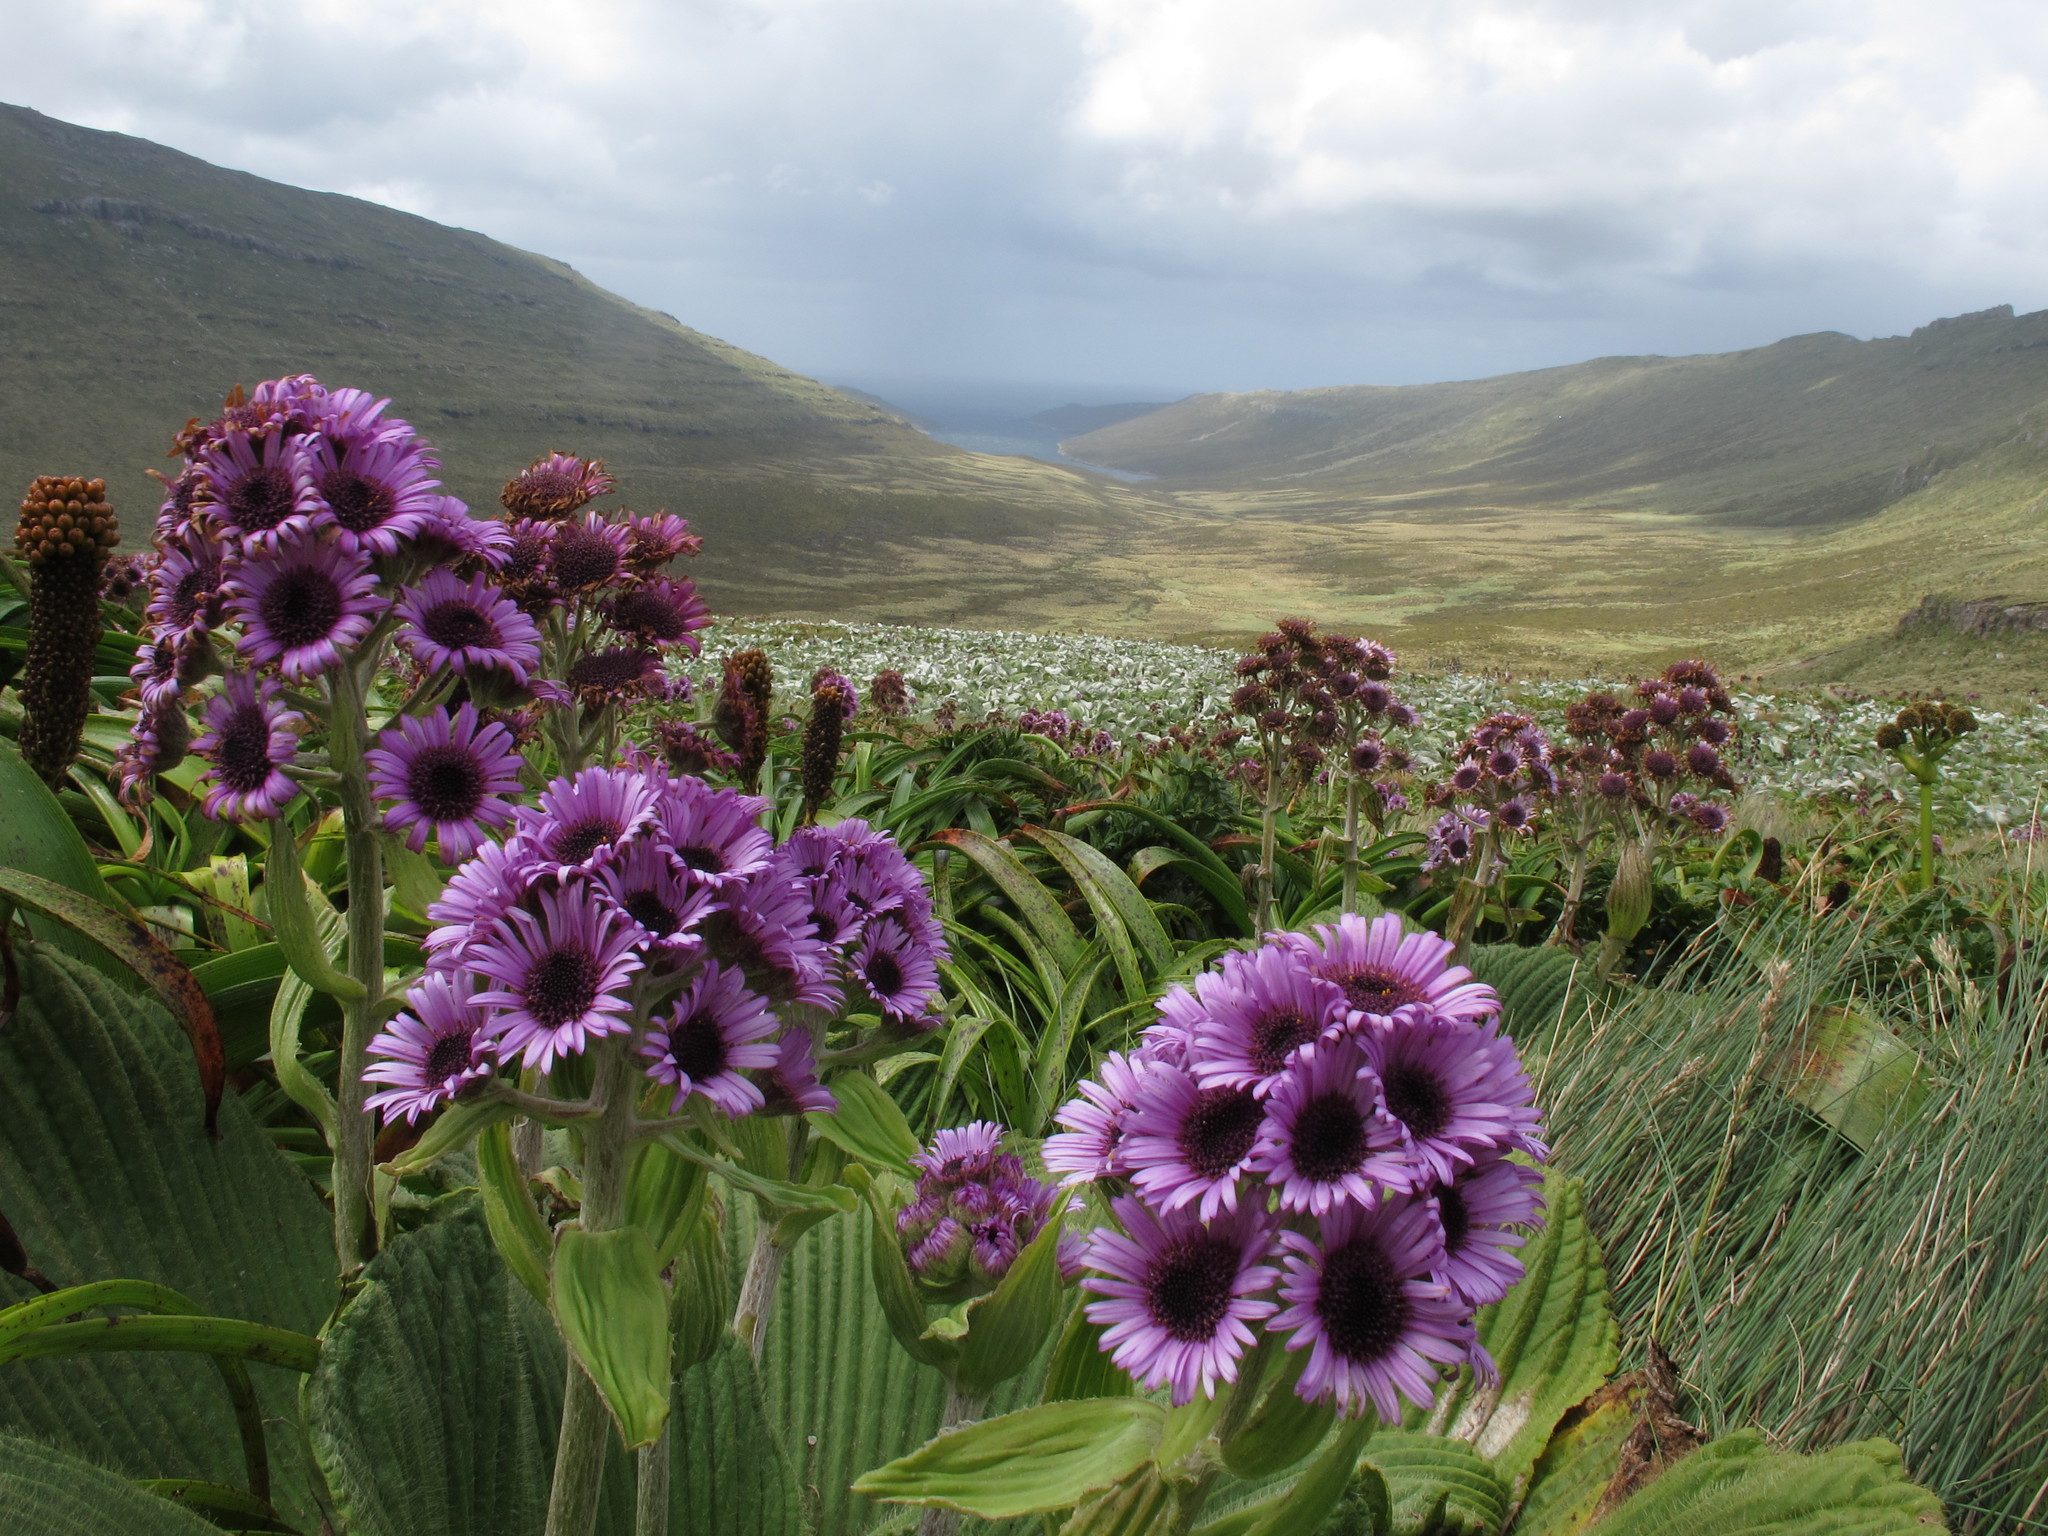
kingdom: Plantae
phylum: Tracheophyta
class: Magnoliopsida
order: Asterales
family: Asteraceae
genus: Pleurophyllum
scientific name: Pleurophyllum speciosum
